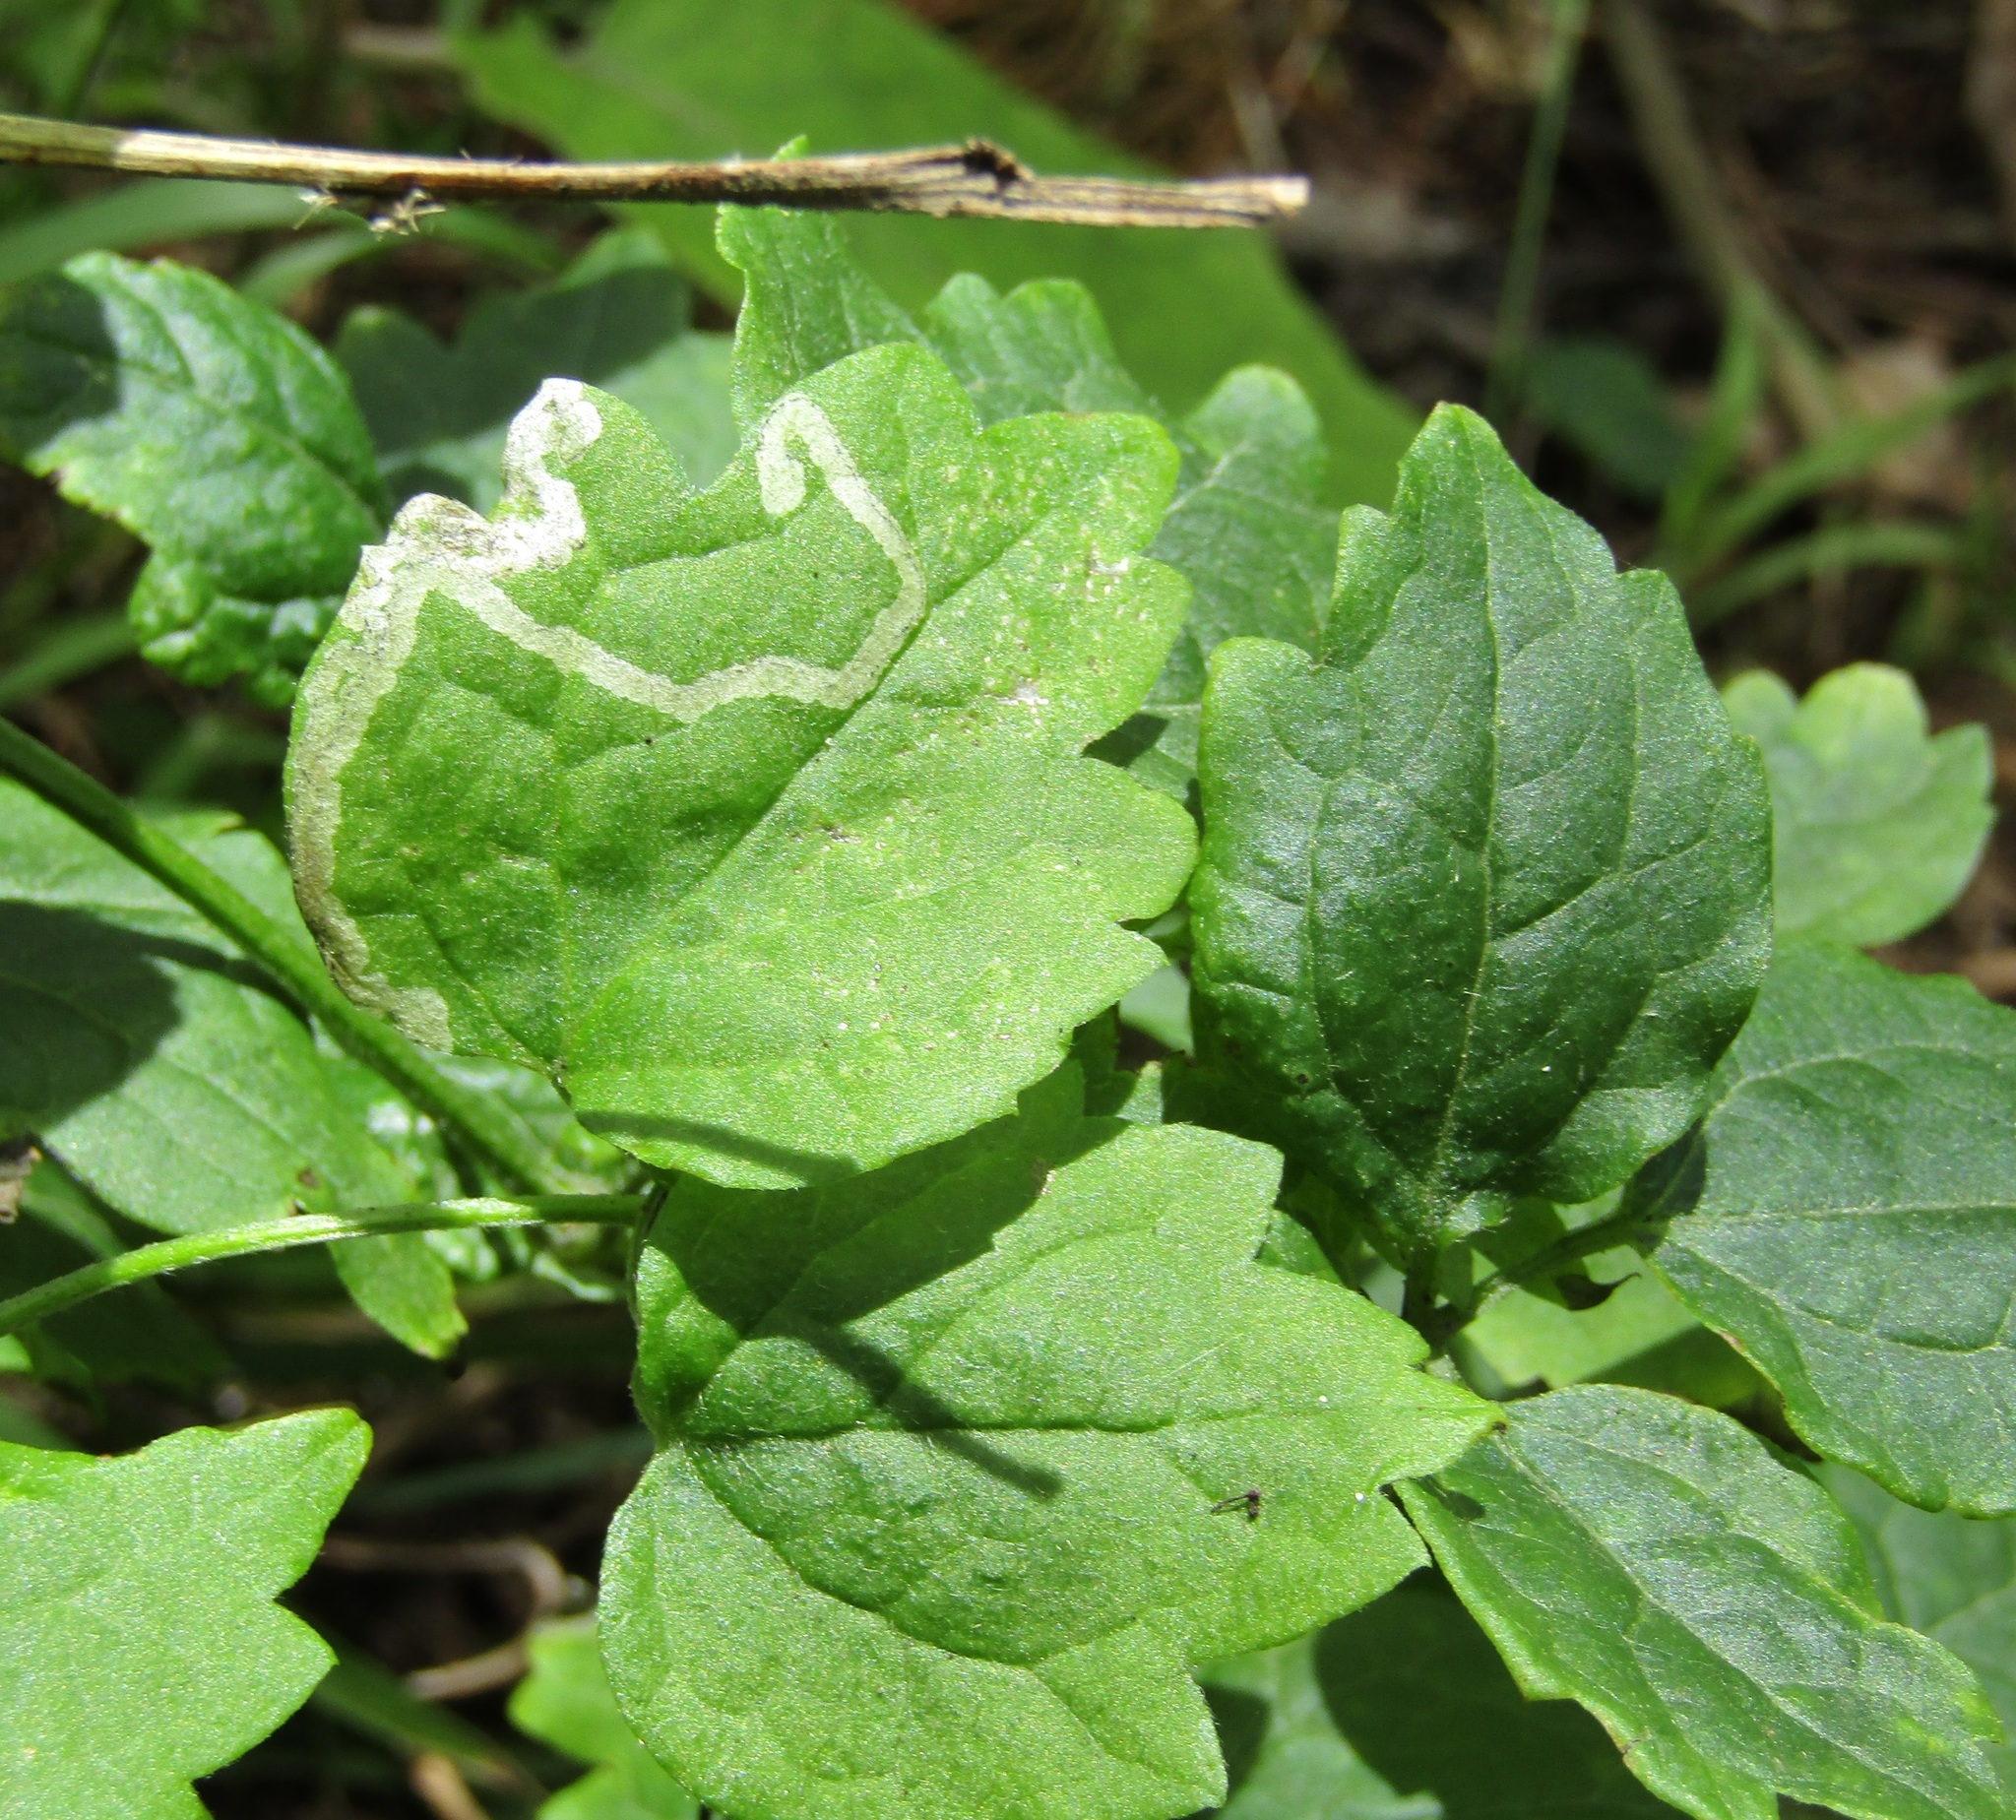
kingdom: Plantae
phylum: Tracheophyta
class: Magnoliopsida
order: Ranunculales
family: Ranunculaceae
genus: Clematis
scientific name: Clematis vitalba
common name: Evergreen clematis
